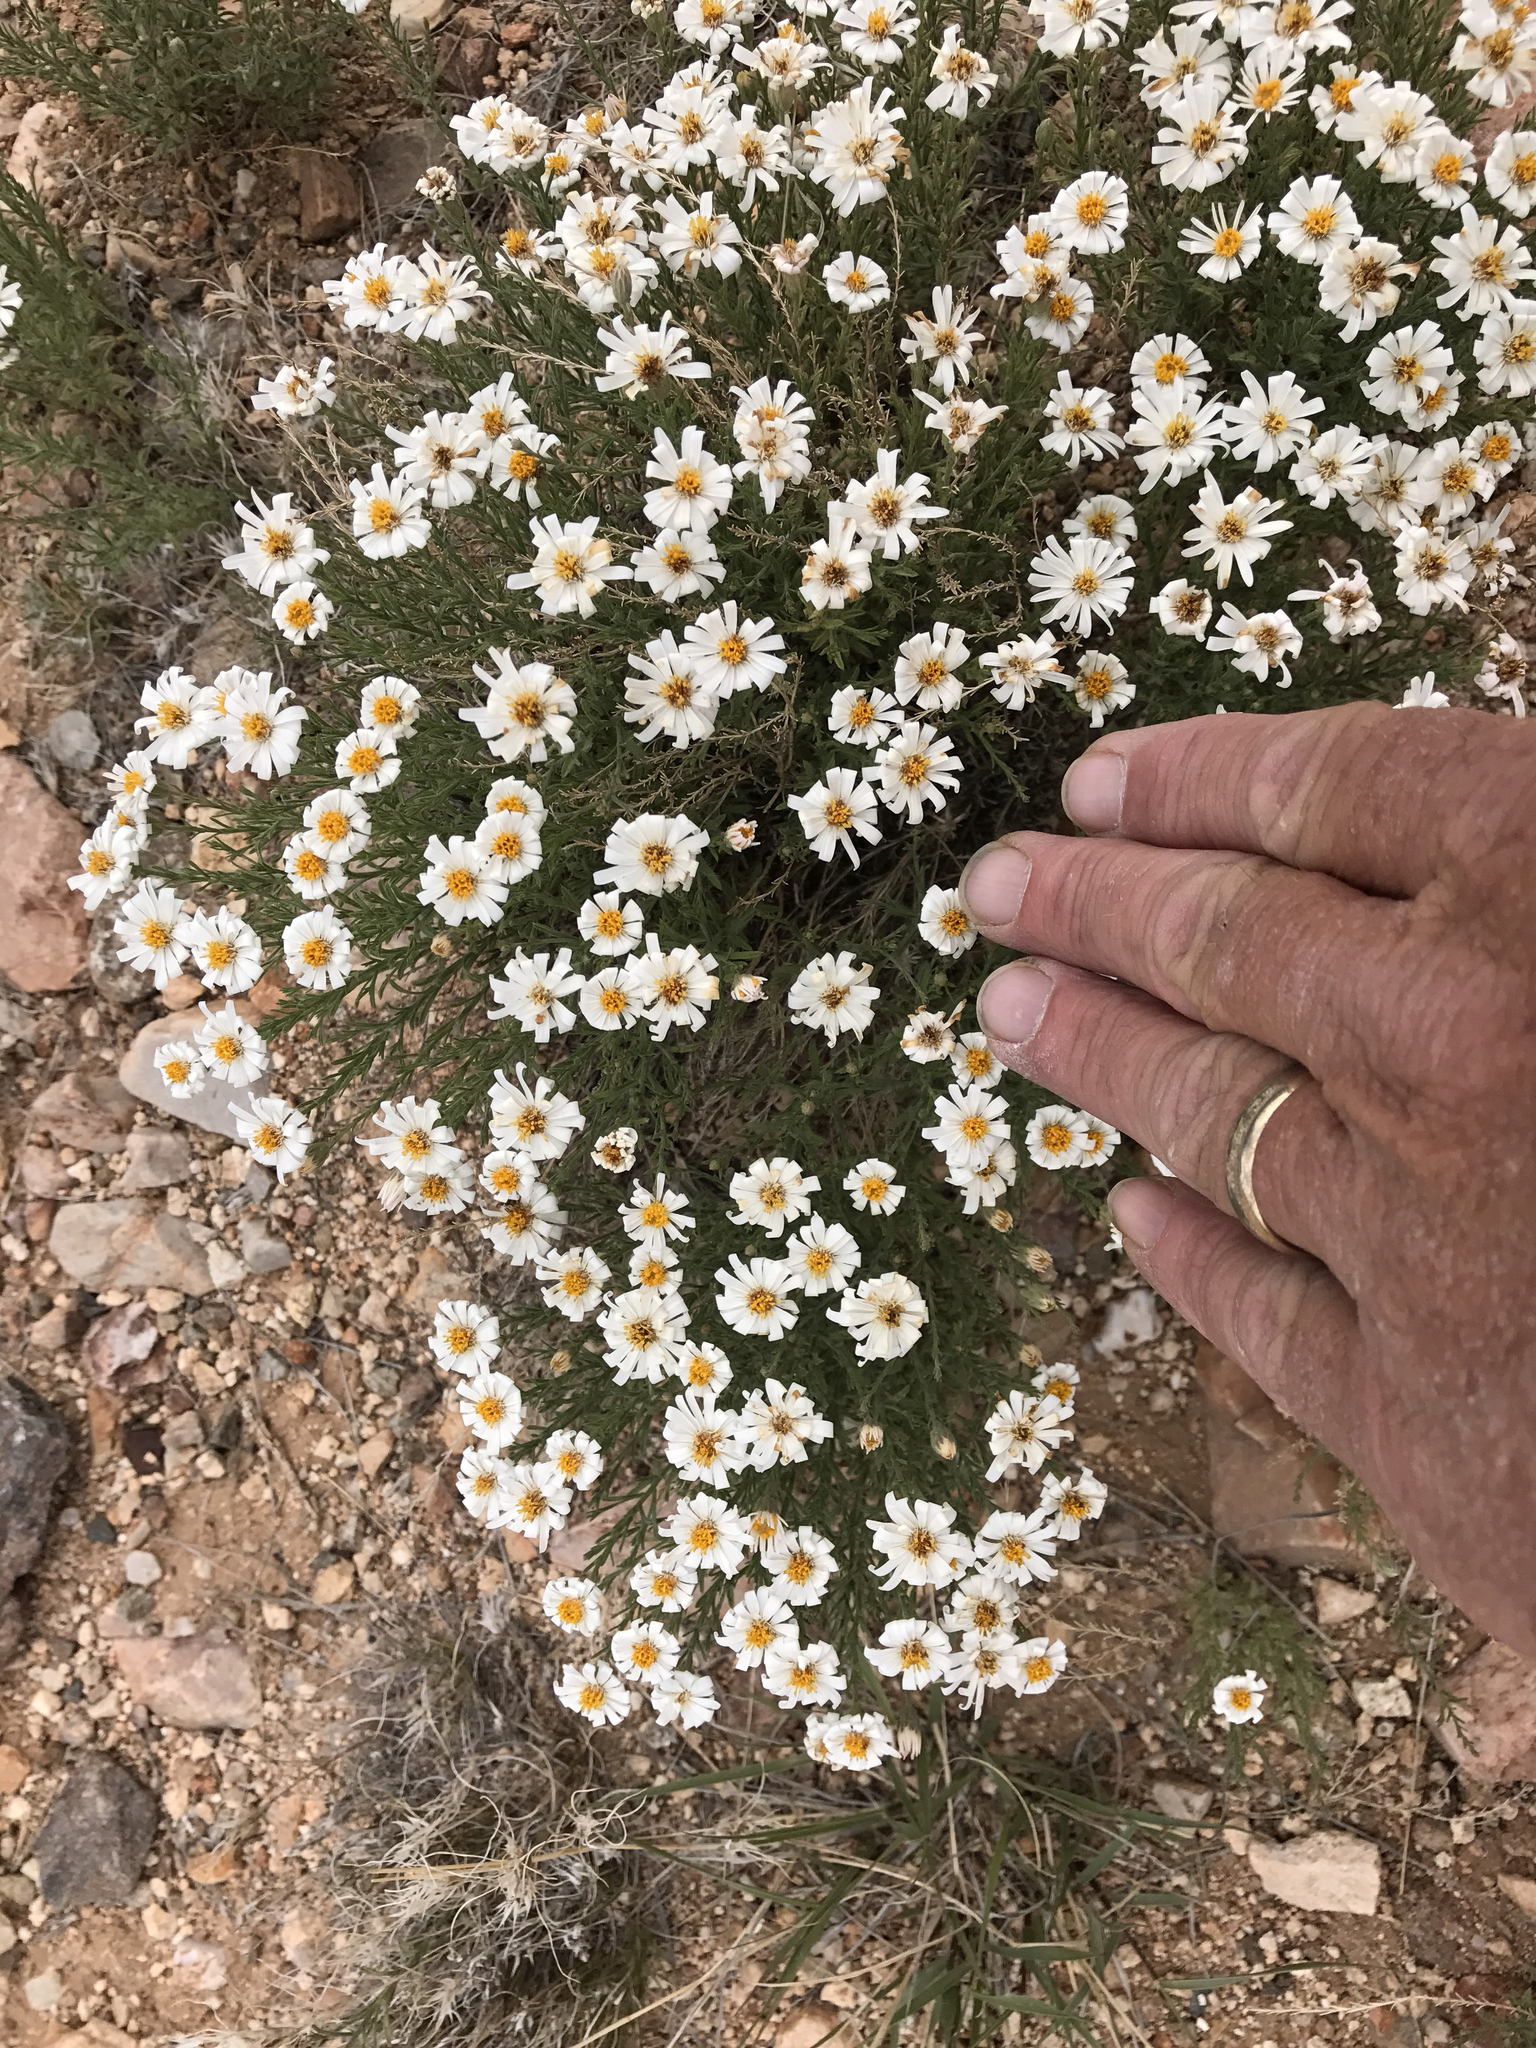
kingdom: Plantae
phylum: Tracheophyta
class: Magnoliopsida
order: Asterales
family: Asteraceae
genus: Melampodium
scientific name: Melampodium leucanthum
